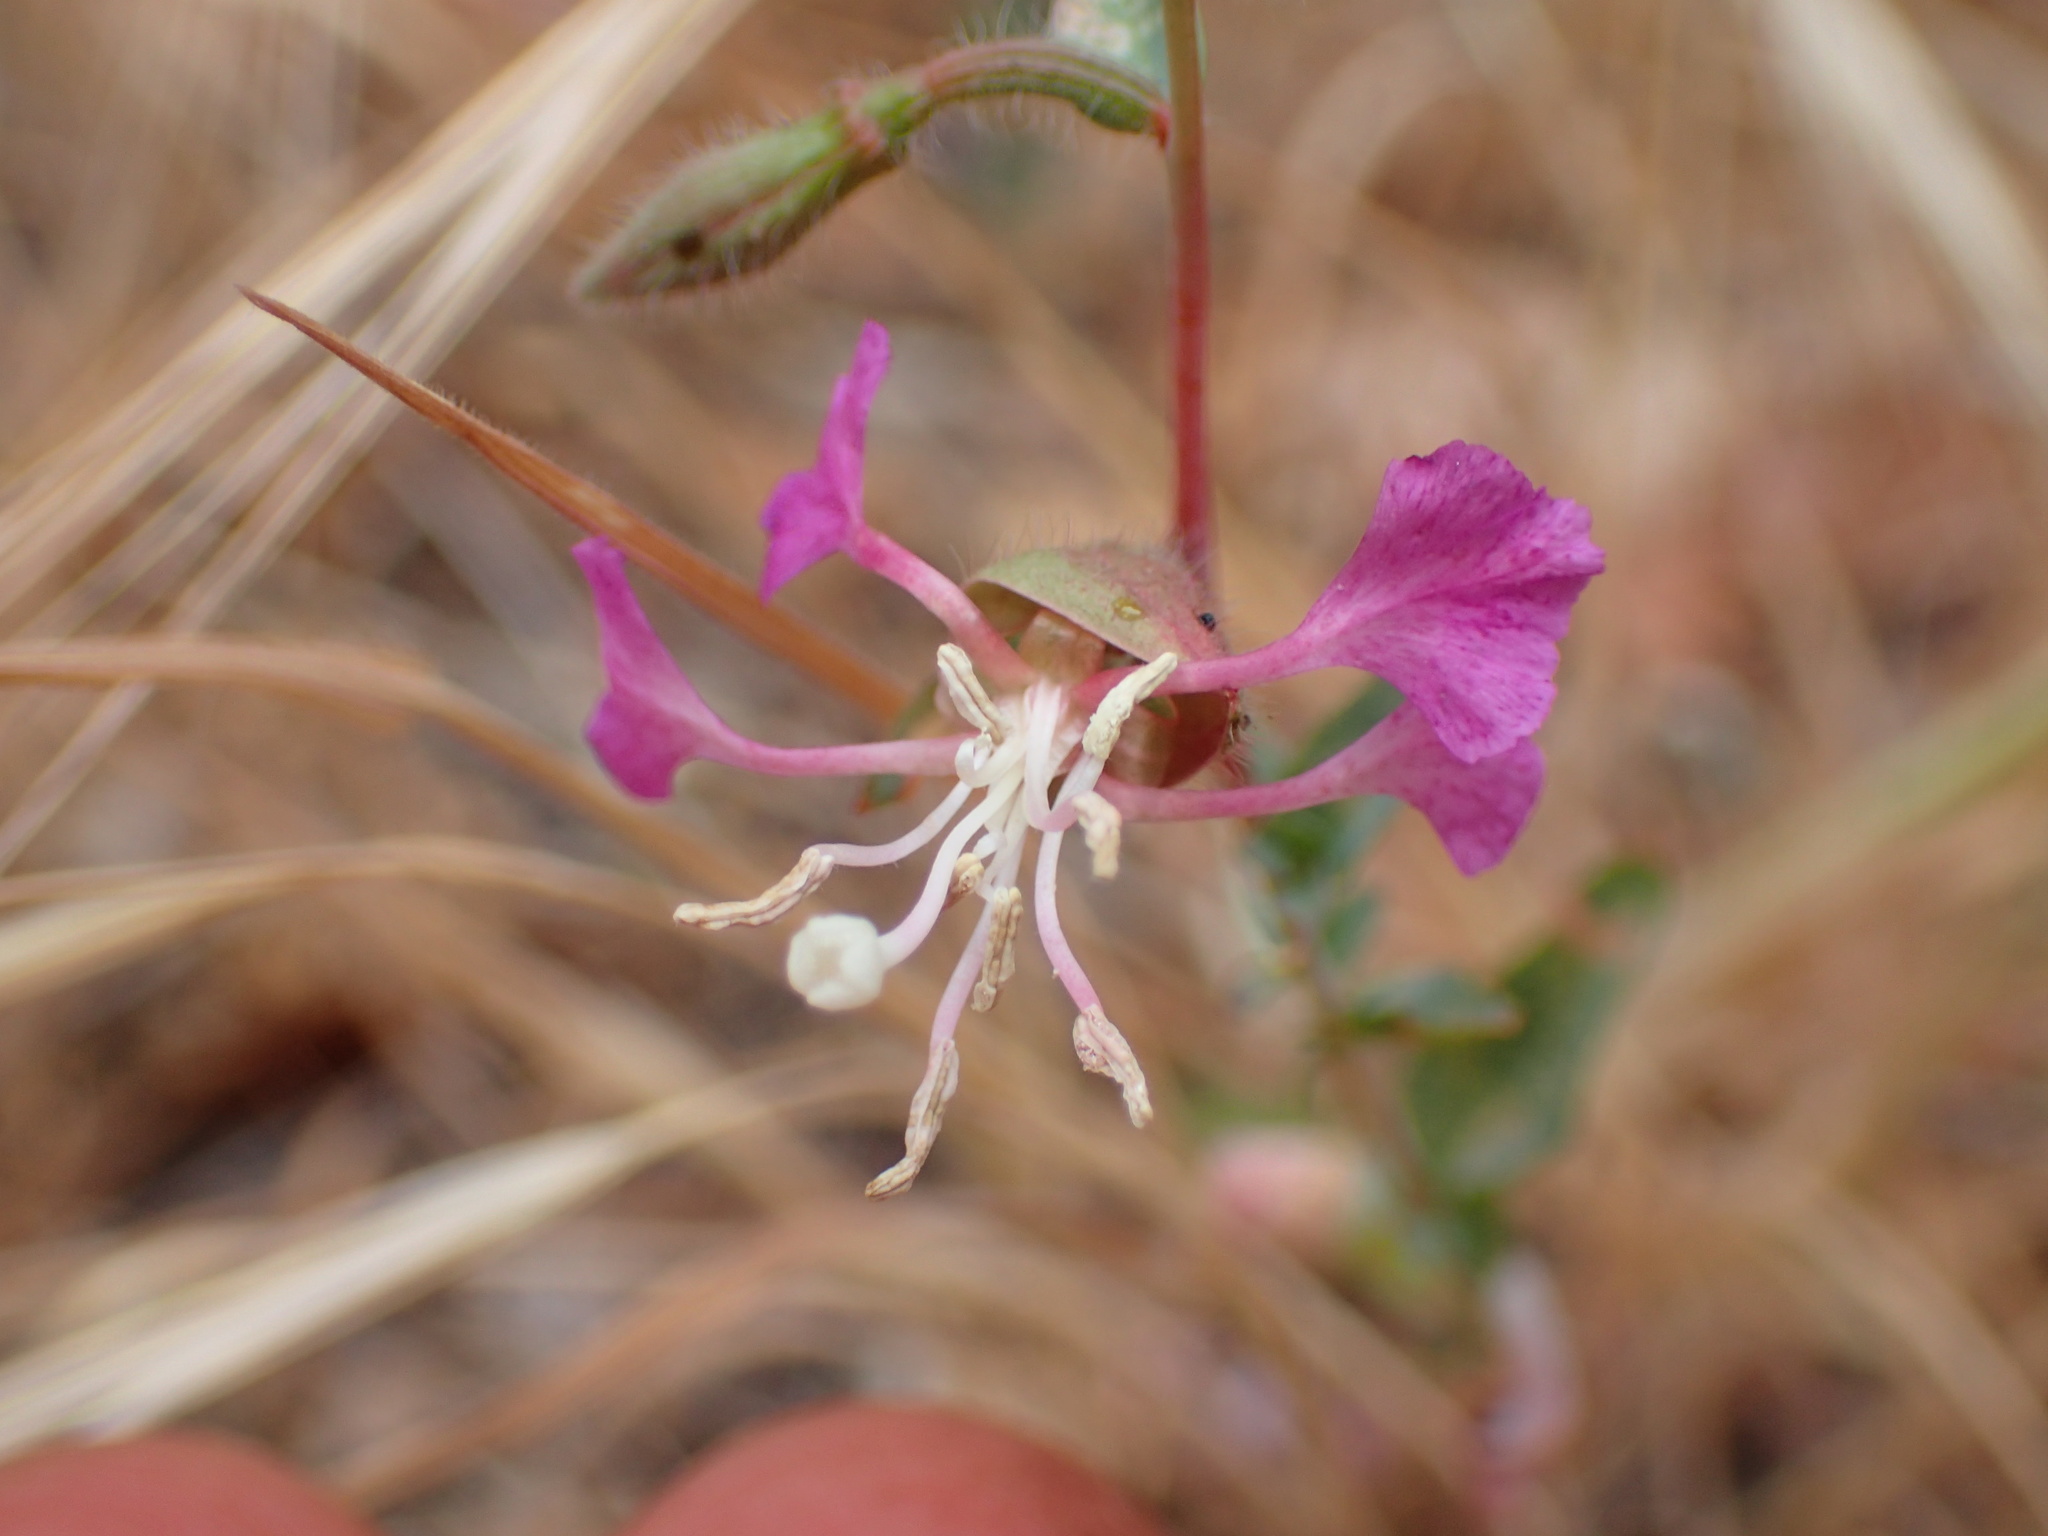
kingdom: Plantae
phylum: Tracheophyta
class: Magnoliopsida
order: Myrtales
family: Onagraceae
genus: Clarkia
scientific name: Clarkia unguiculata
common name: Clarkia
